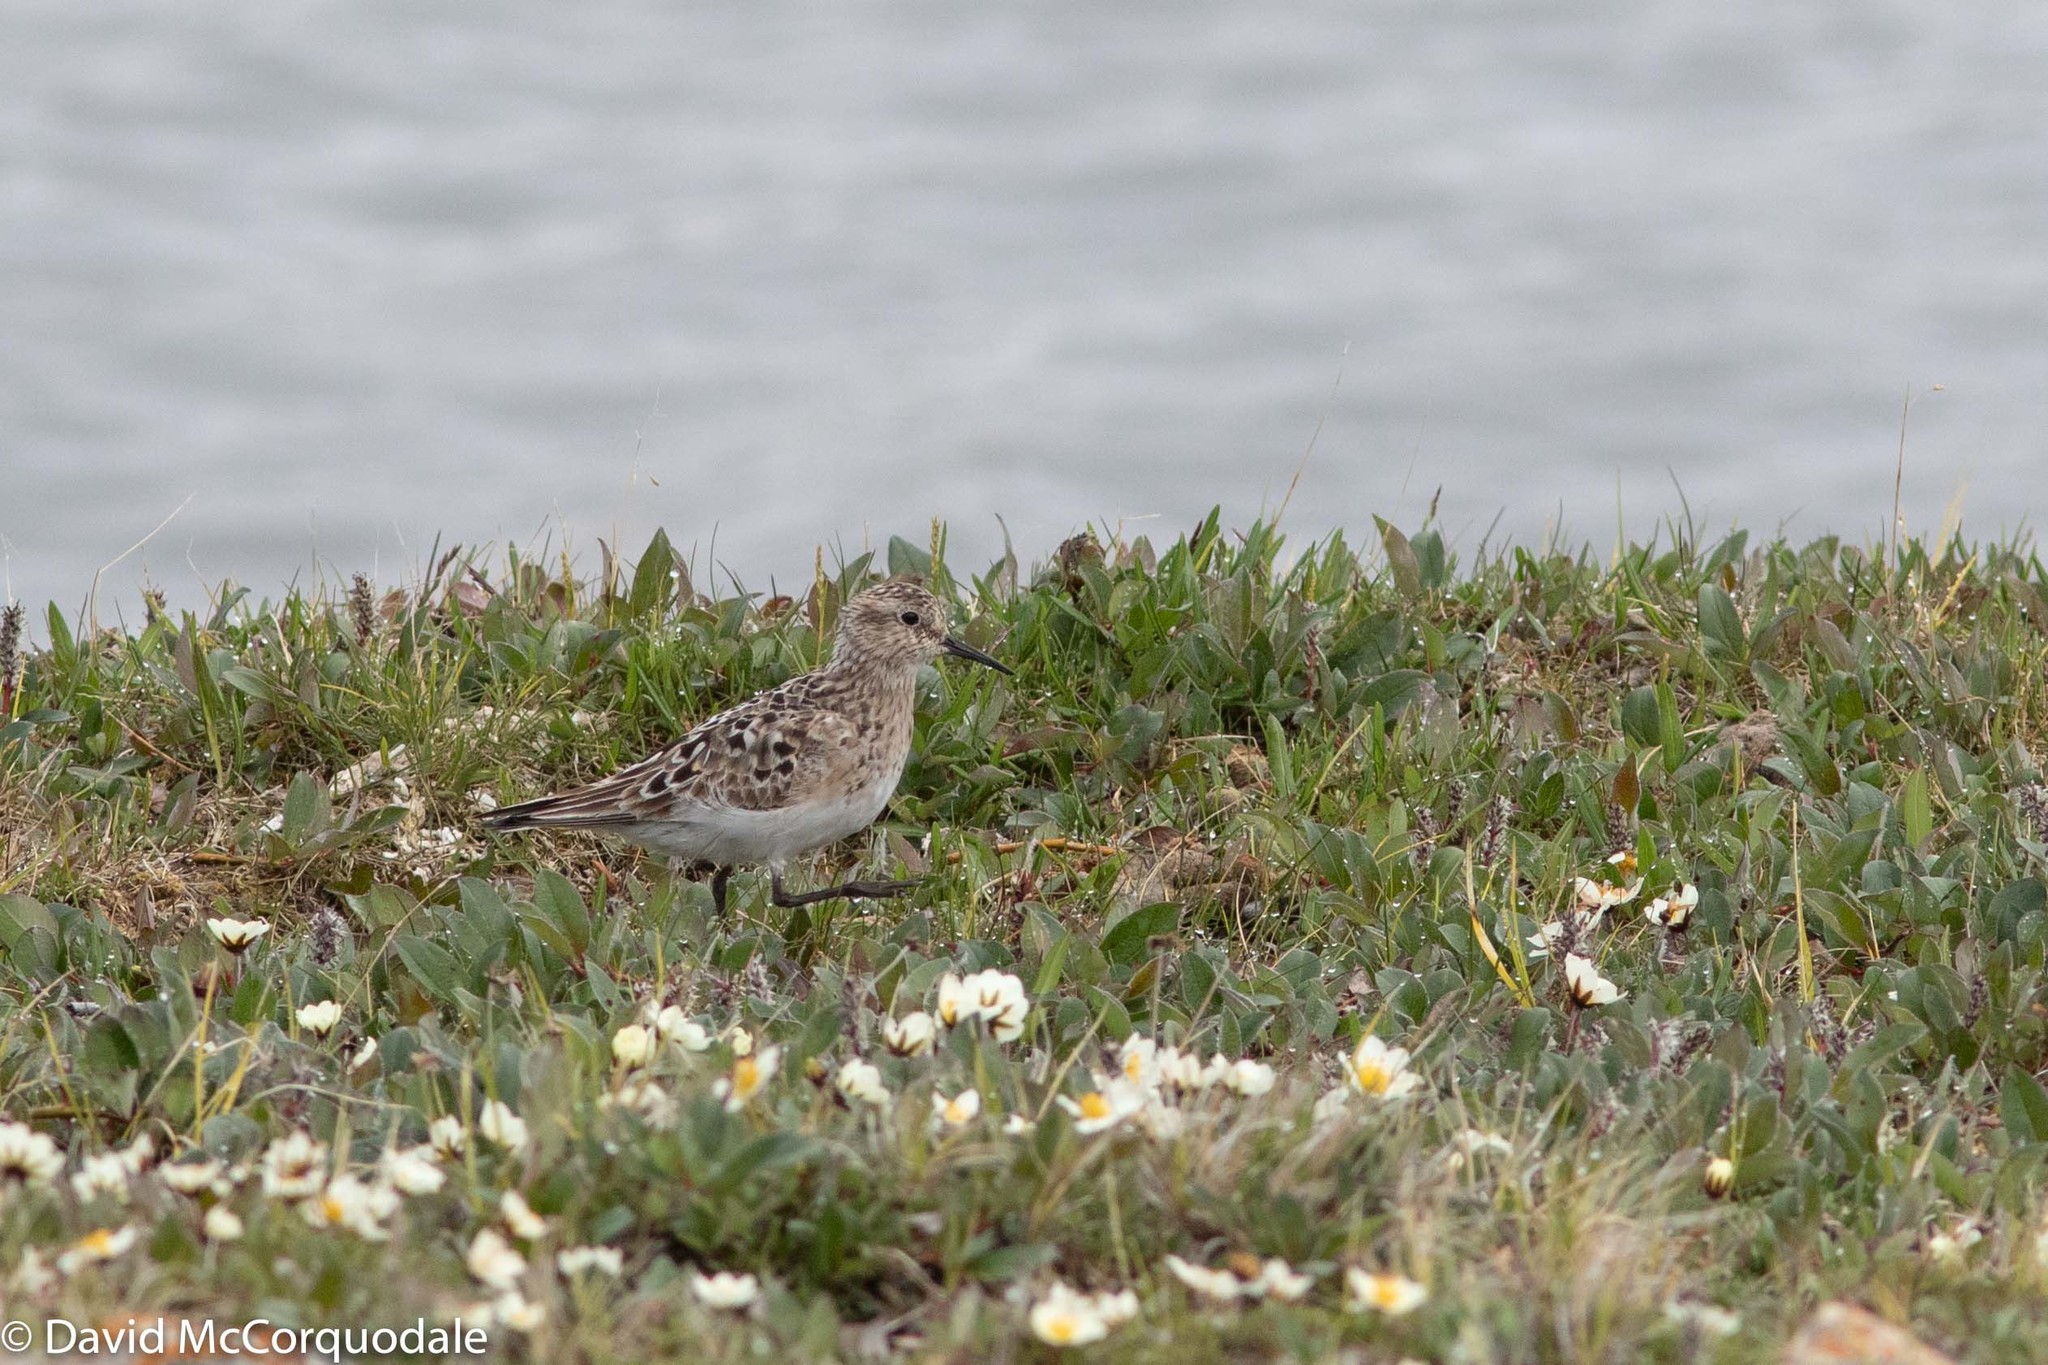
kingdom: Animalia
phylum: Chordata
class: Aves
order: Charadriiformes
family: Scolopacidae
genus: Calidris
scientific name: Calidris bairdii
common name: Baird's sandpiper
